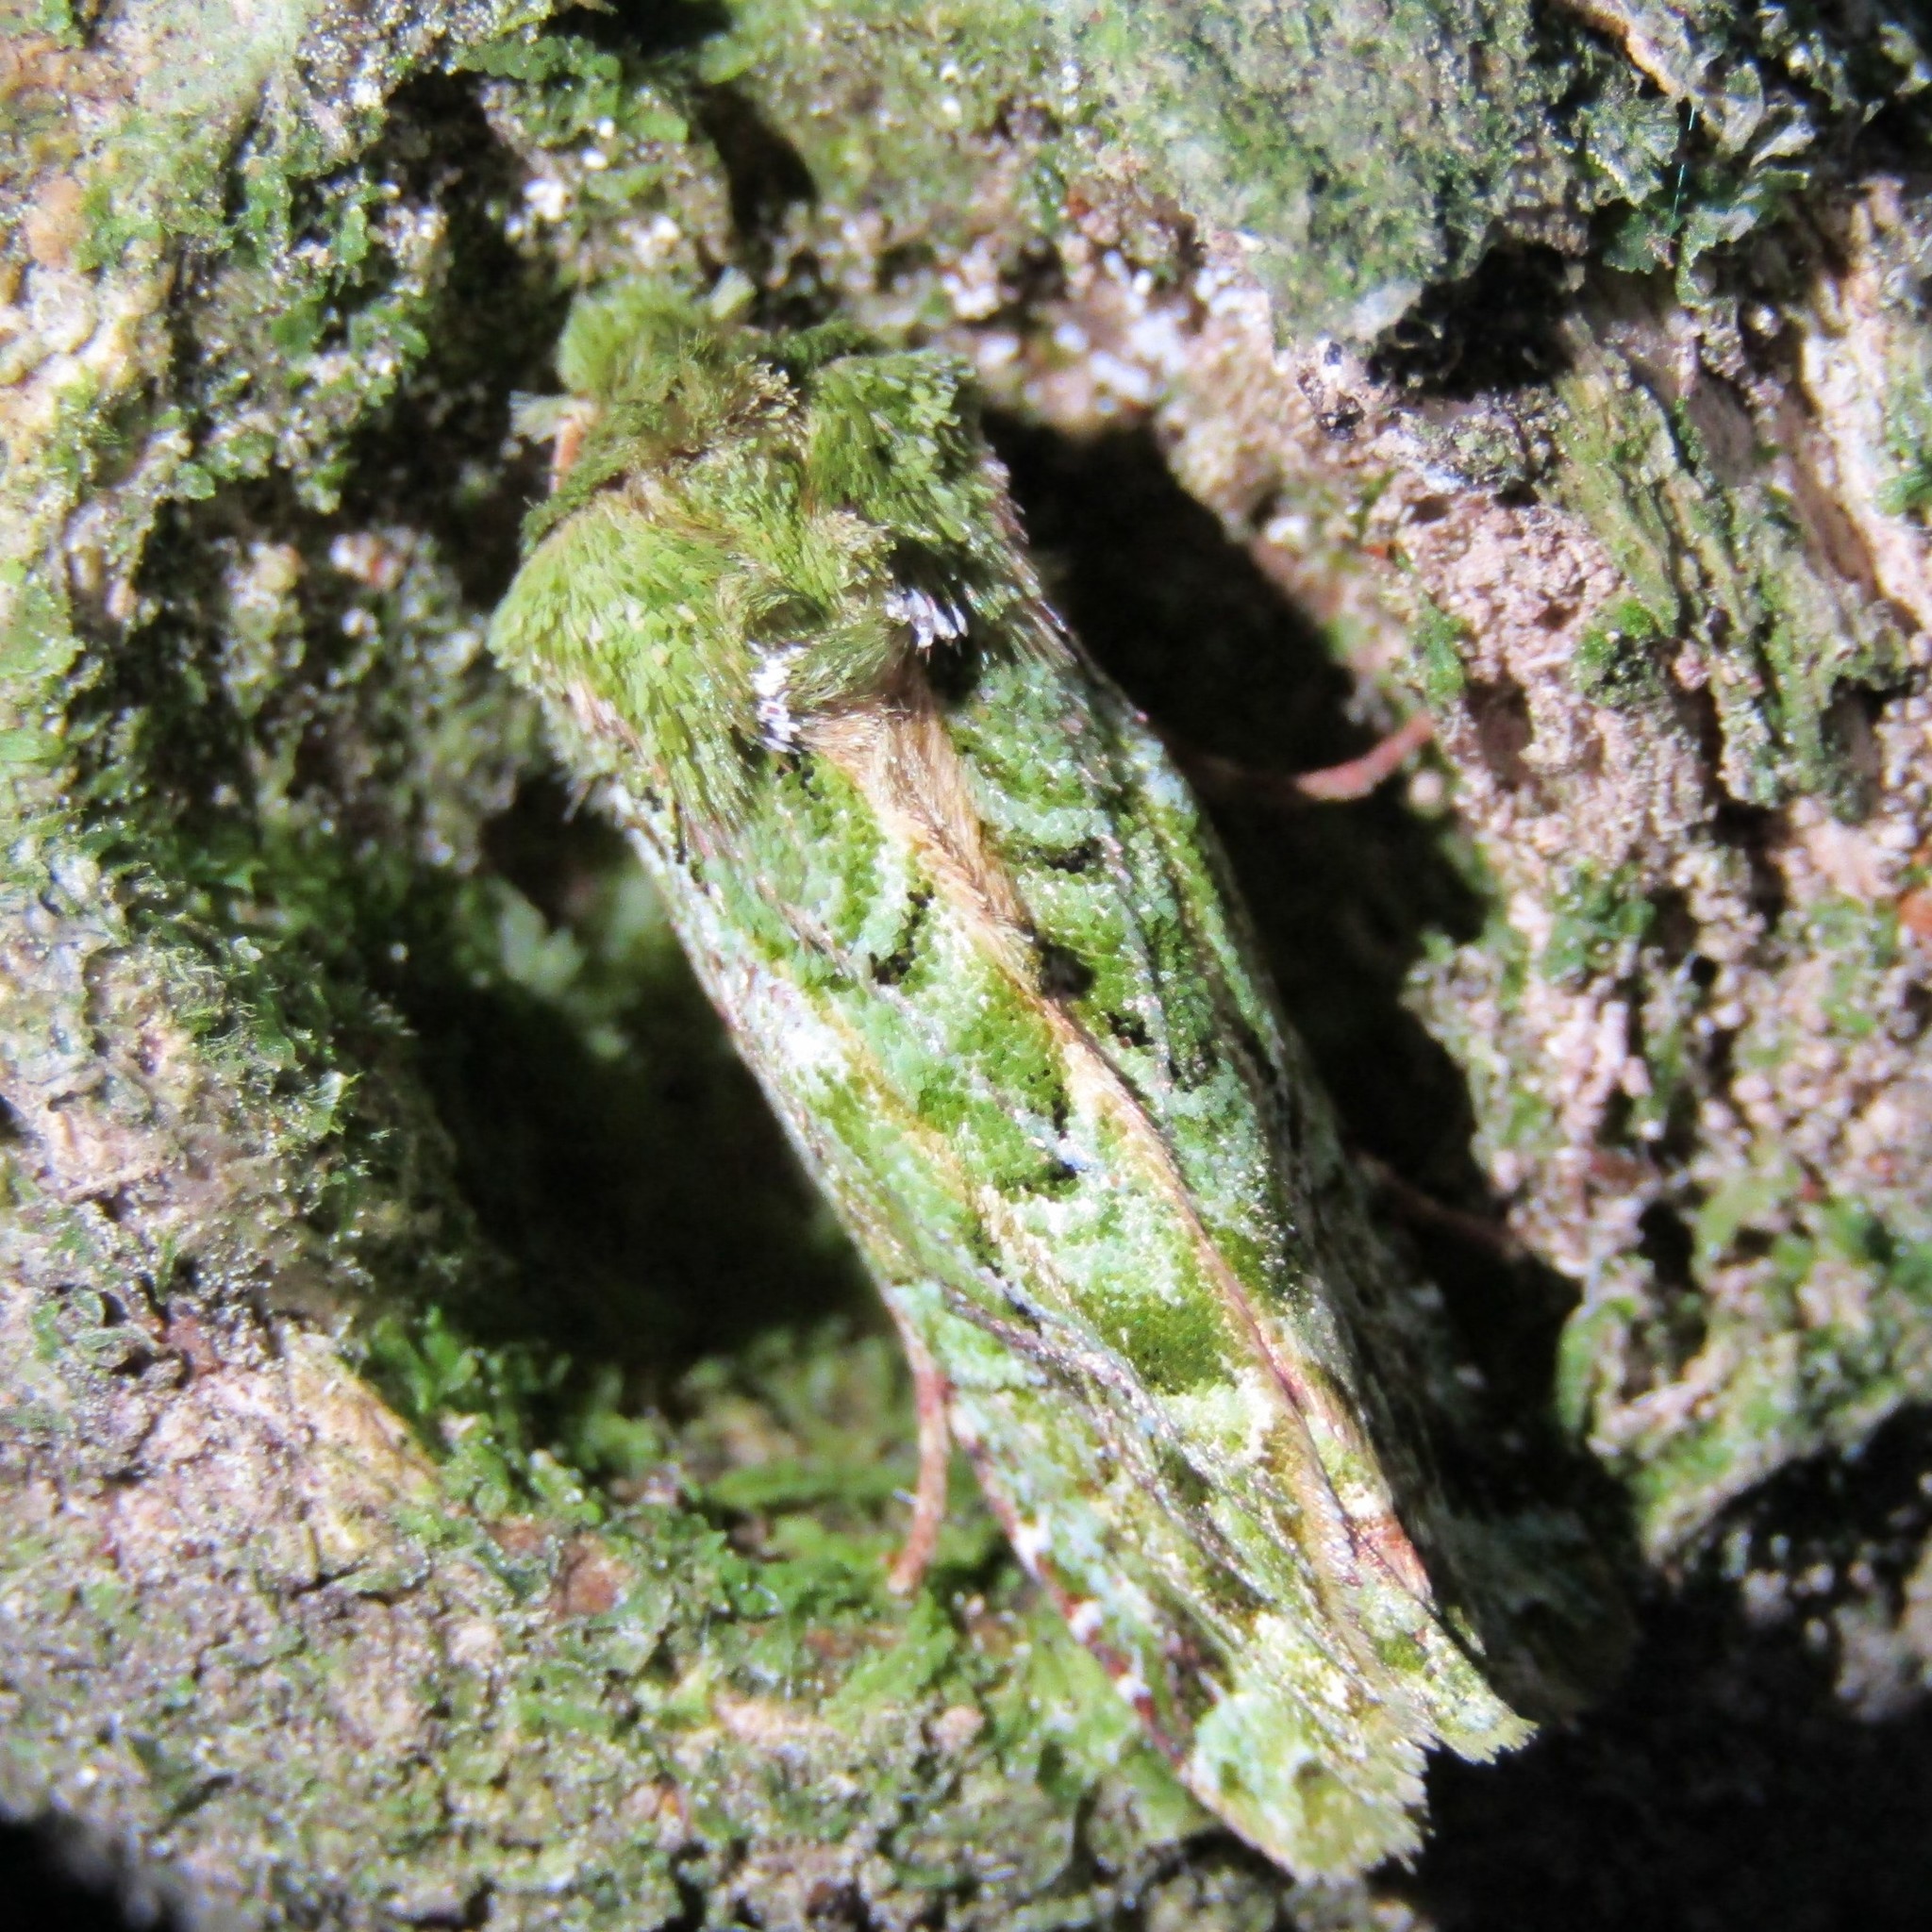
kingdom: Animalia
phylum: Arthropoda
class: Insecta
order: Lepidoptera
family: Noctuidae
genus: Feredayia
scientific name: Feredayia grammosa
